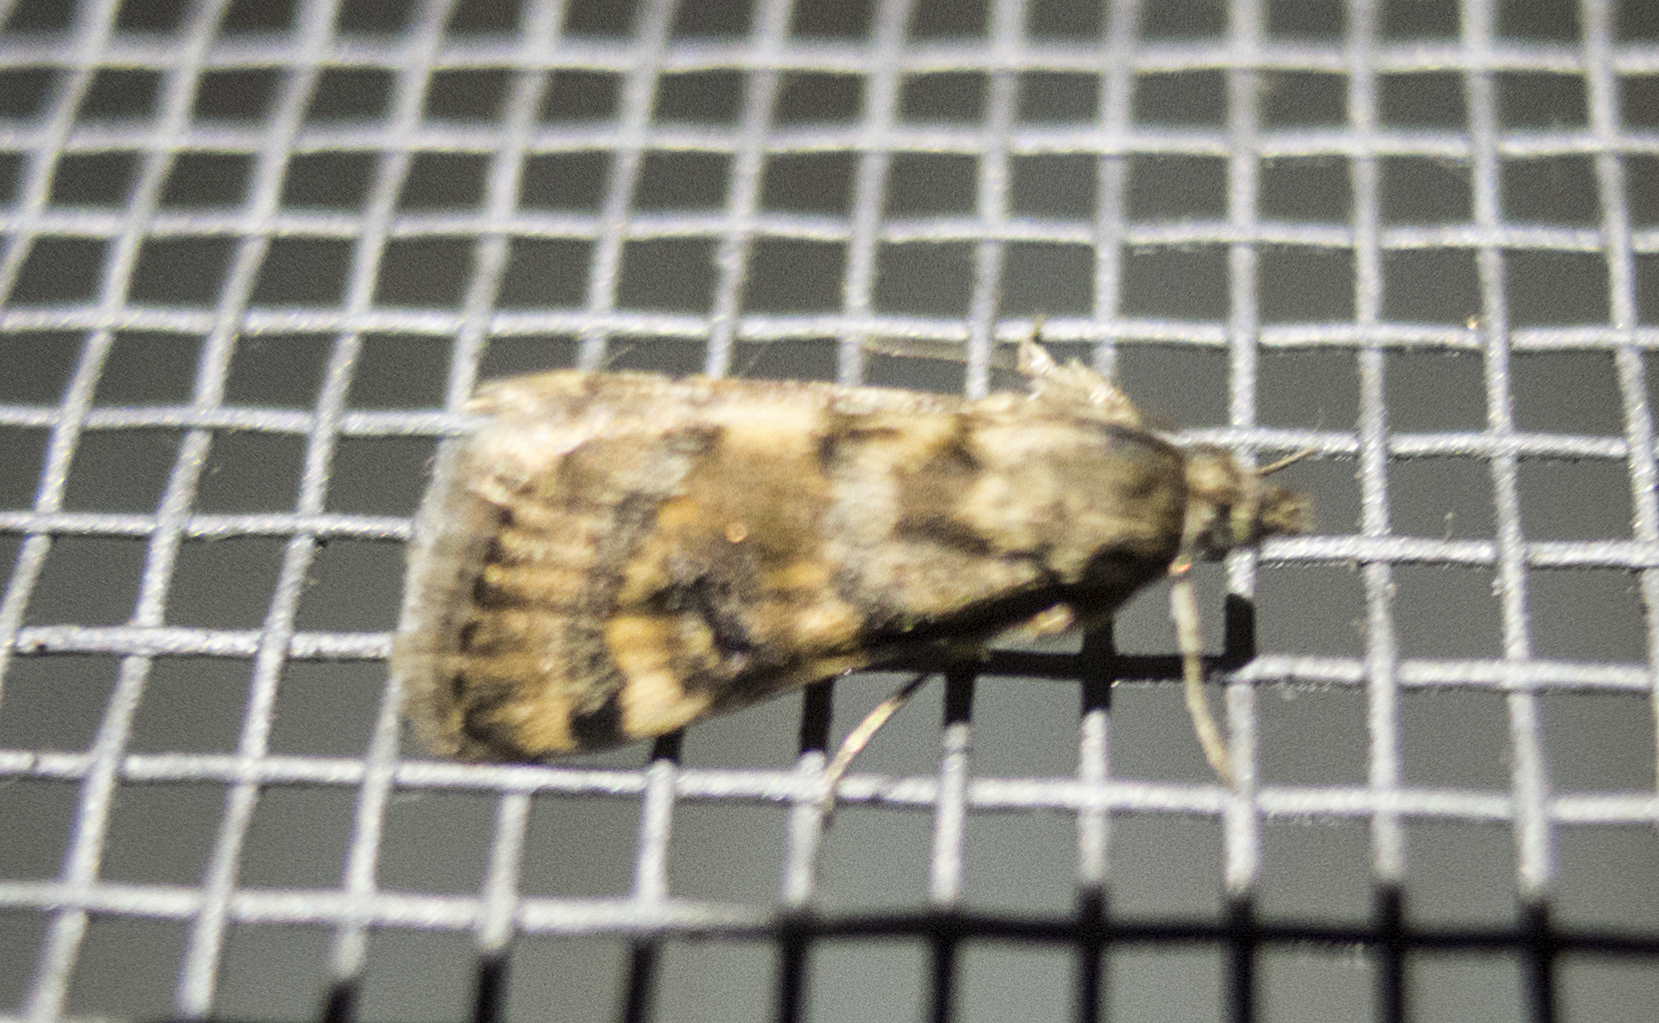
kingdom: Animalia
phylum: Arthropoda
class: Insecta
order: Lepidoptera
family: Crambidae
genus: Noctuelia
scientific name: Noctuelia Aporodes floralis
